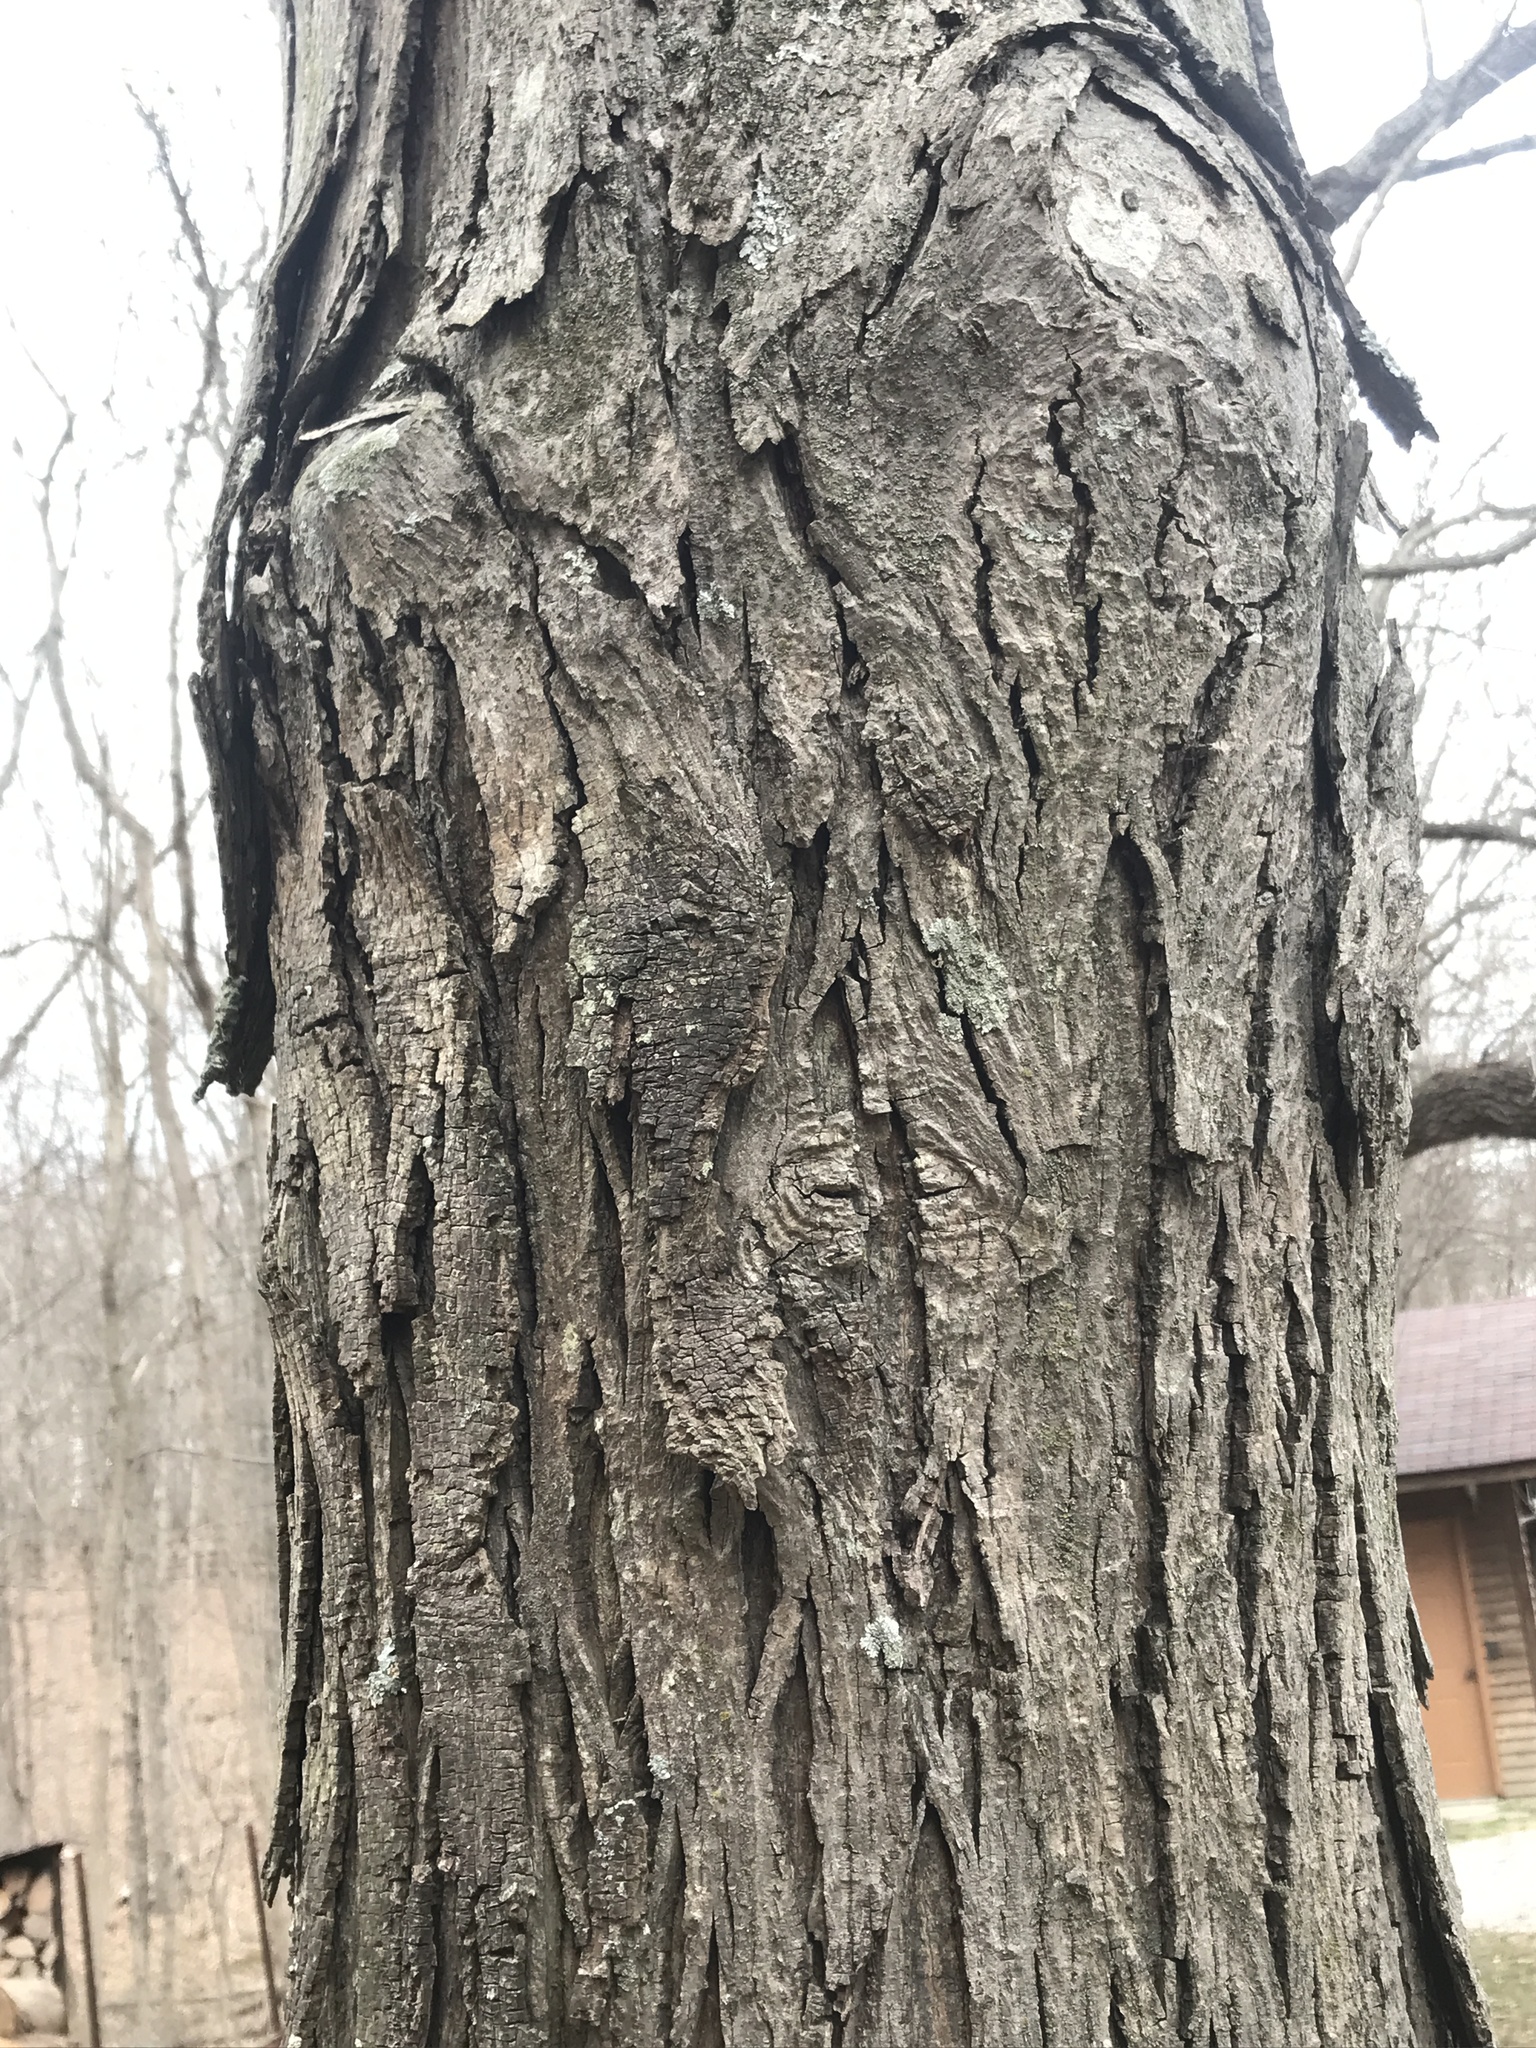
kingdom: Plantae
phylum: Tracheophyta
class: Magnoliopsida
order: Fagales
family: Juglandaceae
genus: Carya
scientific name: Carya ovata
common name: Shagbark hickory
